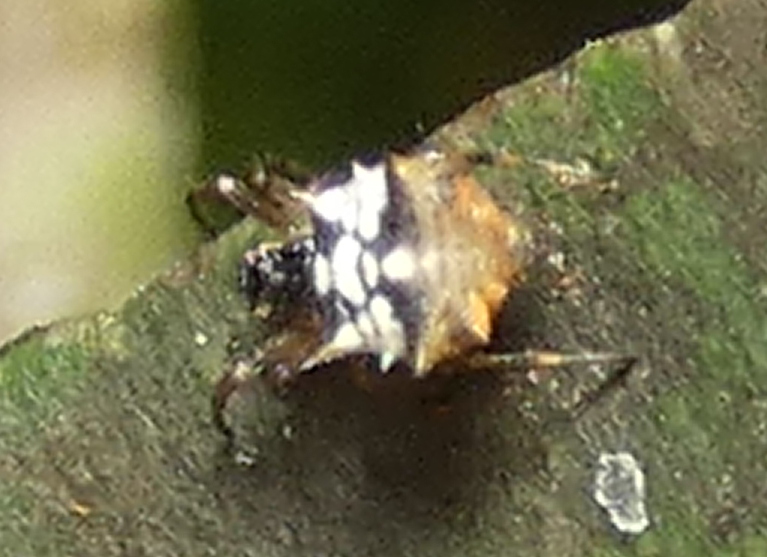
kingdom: Animalia
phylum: Arthropoda
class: Arachnida
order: Araneae
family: Araneidae
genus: Micrathena
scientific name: Micrathena picta
